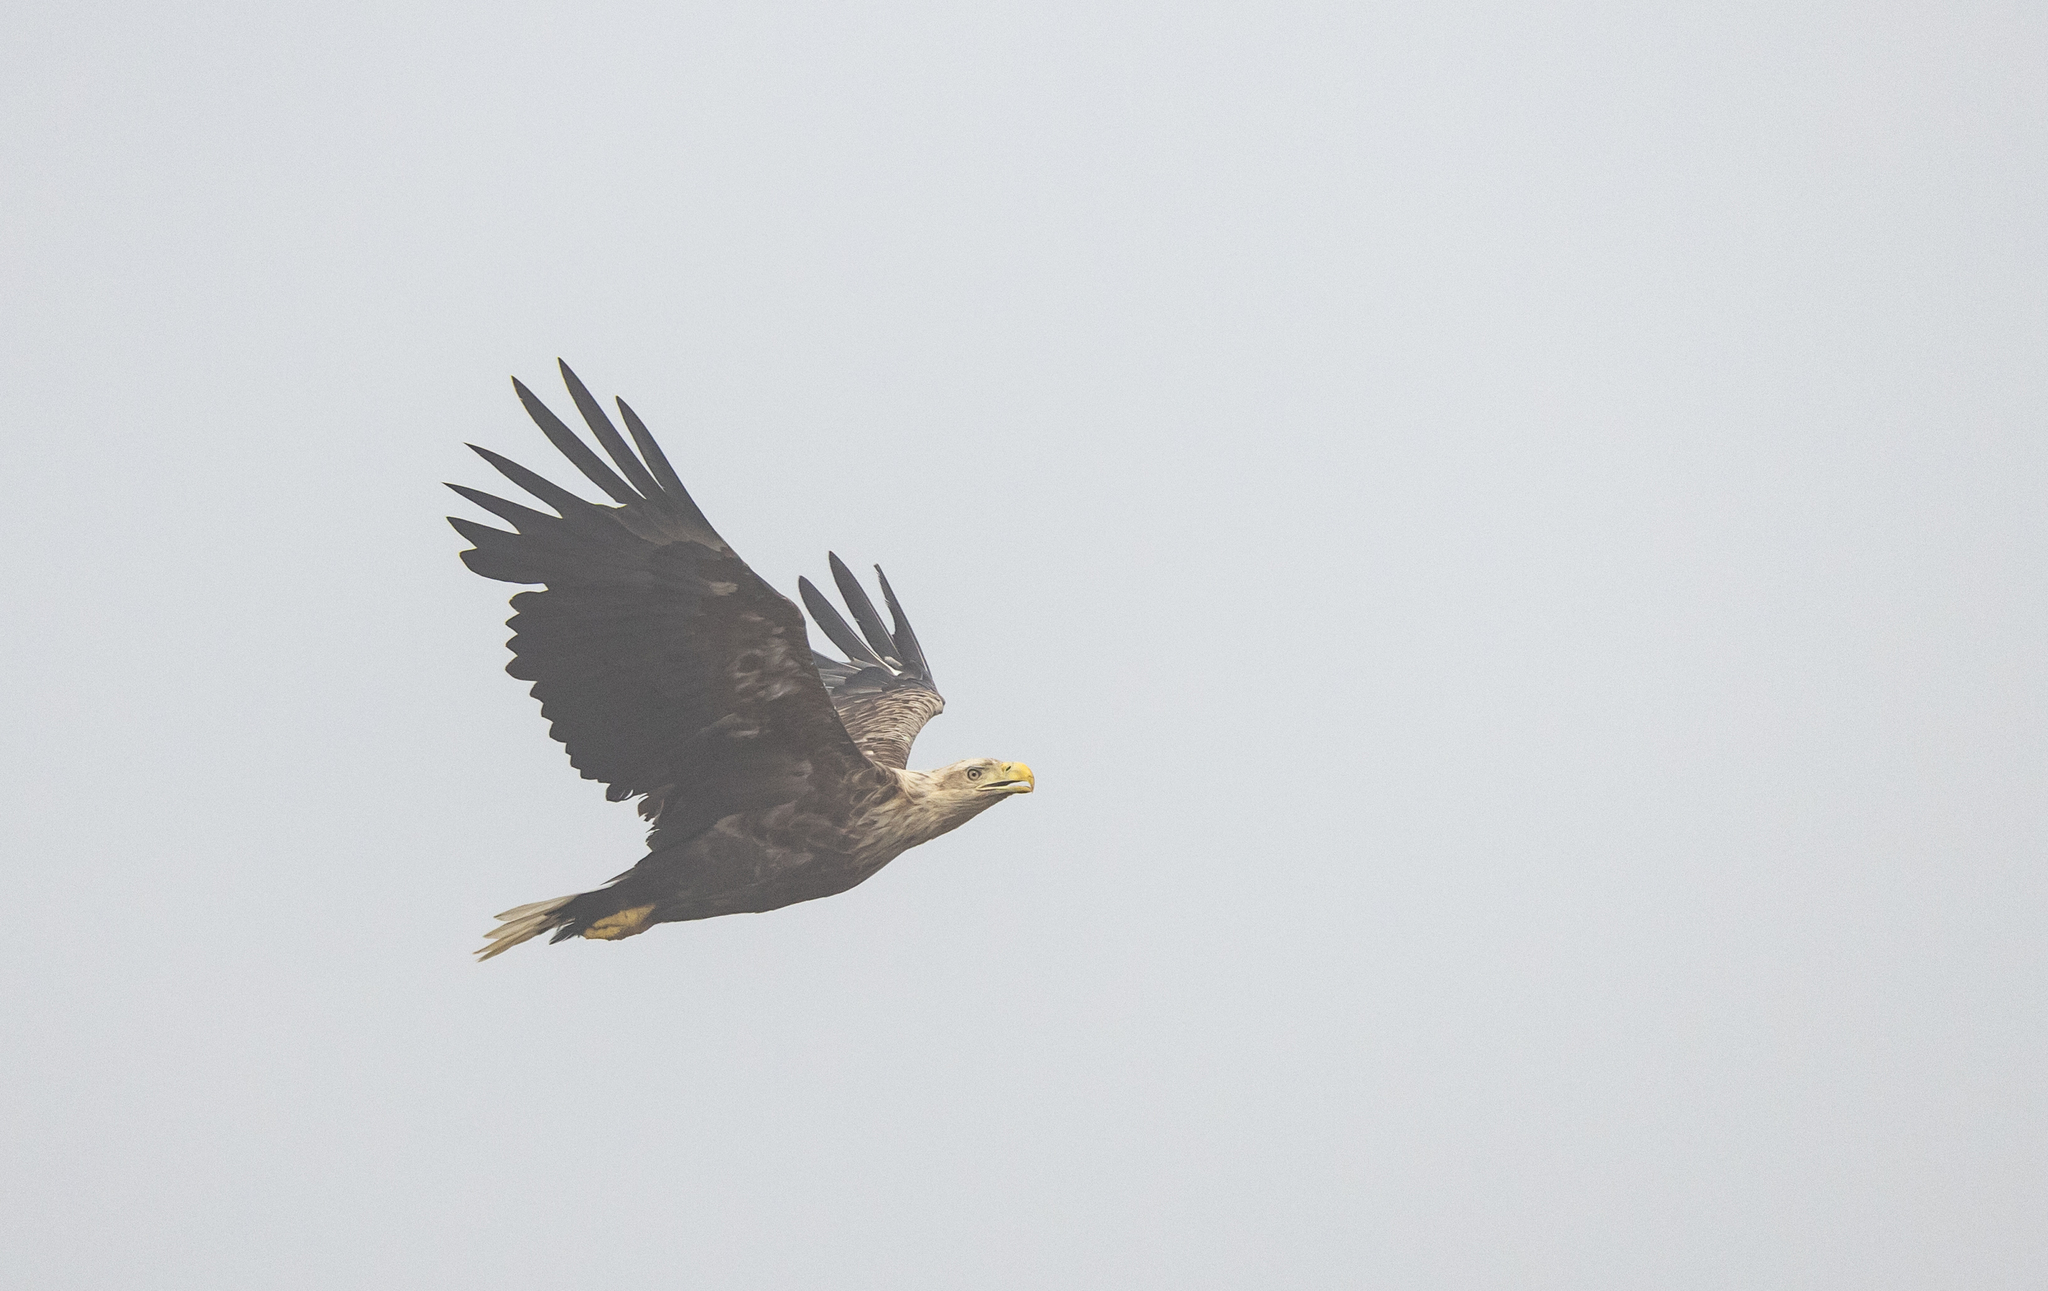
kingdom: Animalia
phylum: Chordata
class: Aves
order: Accipitriformes
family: Accipitridae
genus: Haliaeetus
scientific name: Haliaeetus albicilla
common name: White-tailed eagle
